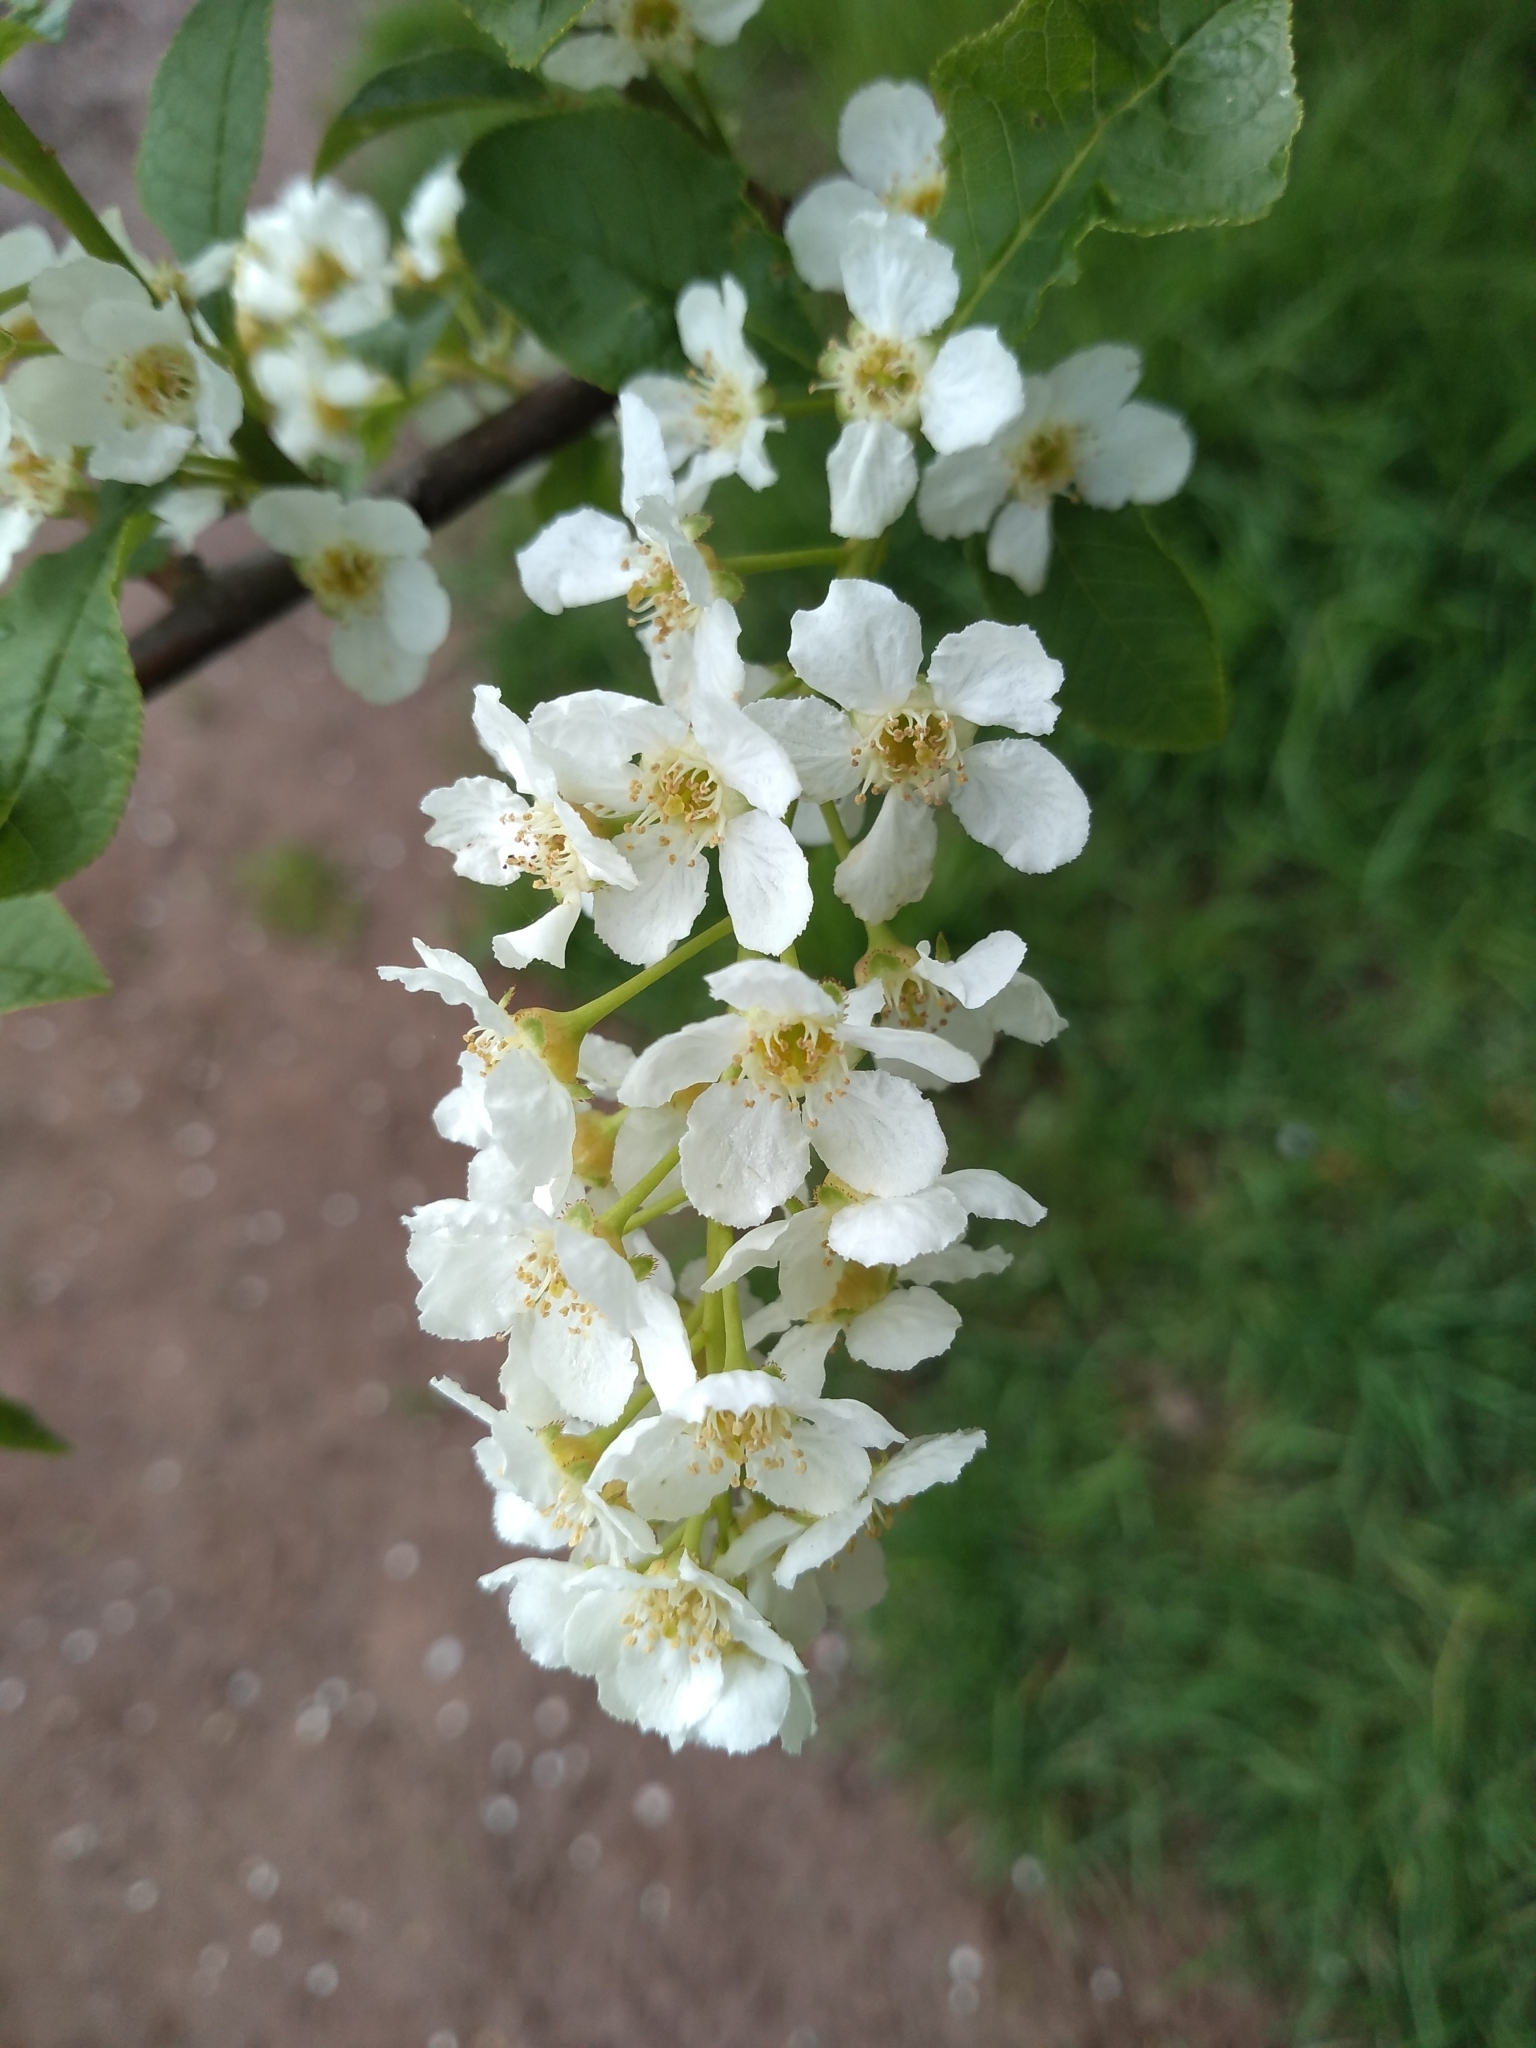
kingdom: Plantae
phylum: Tracheophyta
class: Magnoliopsida
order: Rosales
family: Rosaceae
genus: Prunus
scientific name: Prunus padus
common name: Bird cherry
